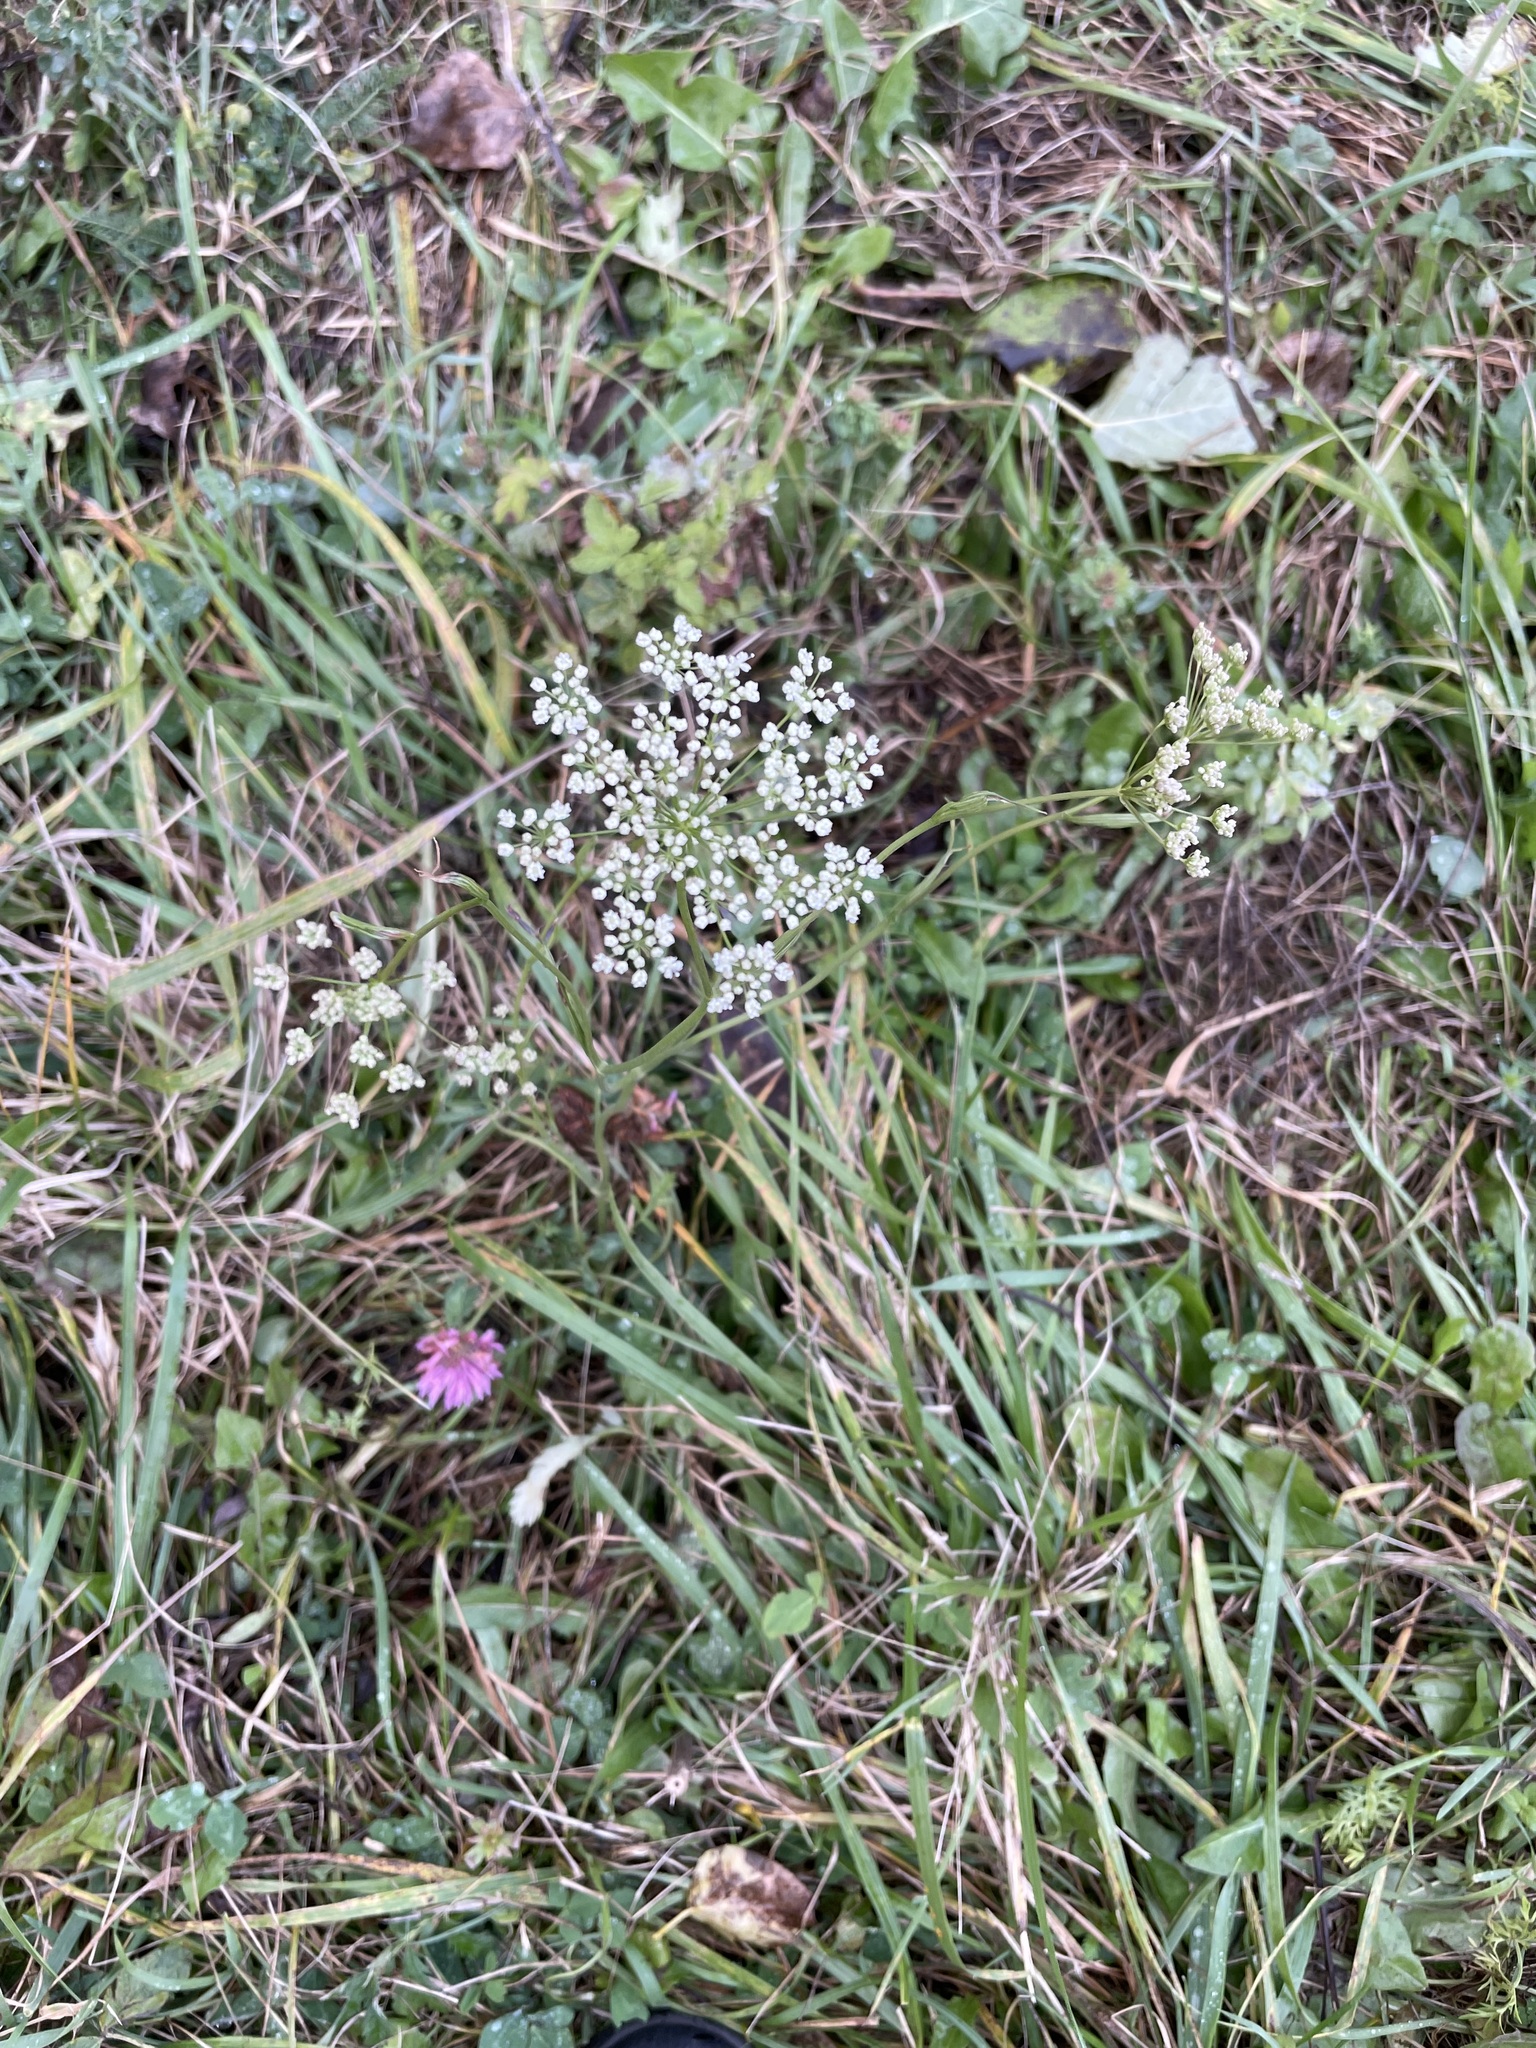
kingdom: Plantae
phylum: Tracheophyta
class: Magnoliopsida
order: Apiales
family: Apiaceae
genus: Pimpinella
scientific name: Pimpinella saxifraga
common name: Burnet-saxifrage
